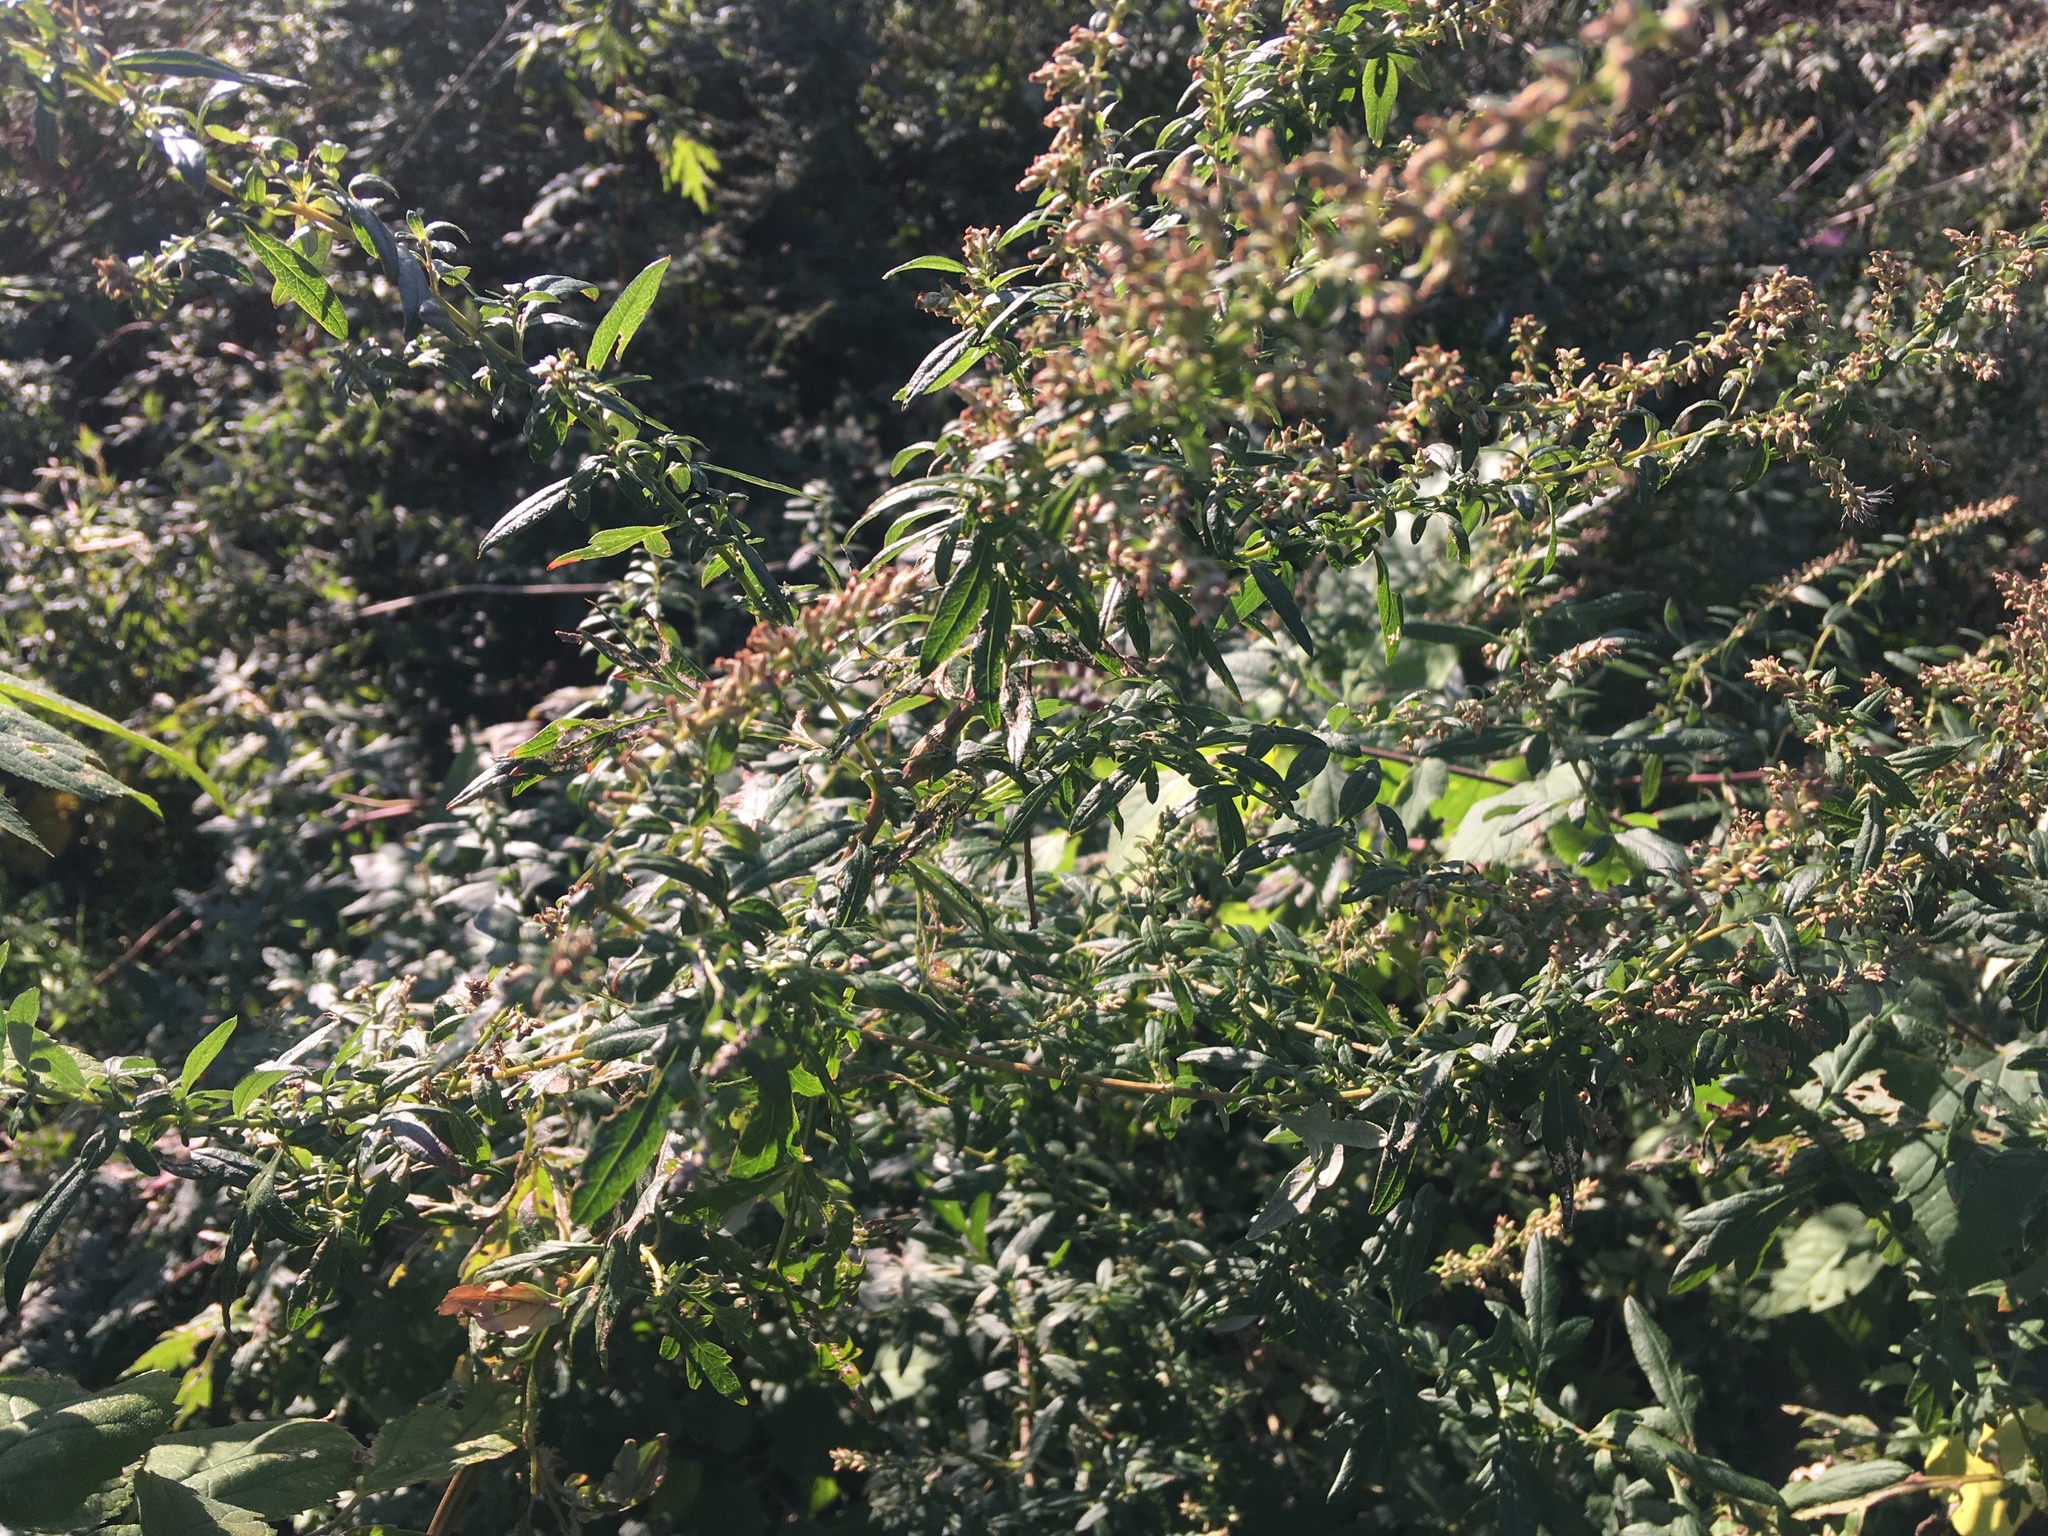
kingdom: Plantae
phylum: Tracheophyta
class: Magnoliopsida
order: Asterales
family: Asteraceae
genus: Artemisia
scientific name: Artemisia vulgaris
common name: Mugwort
